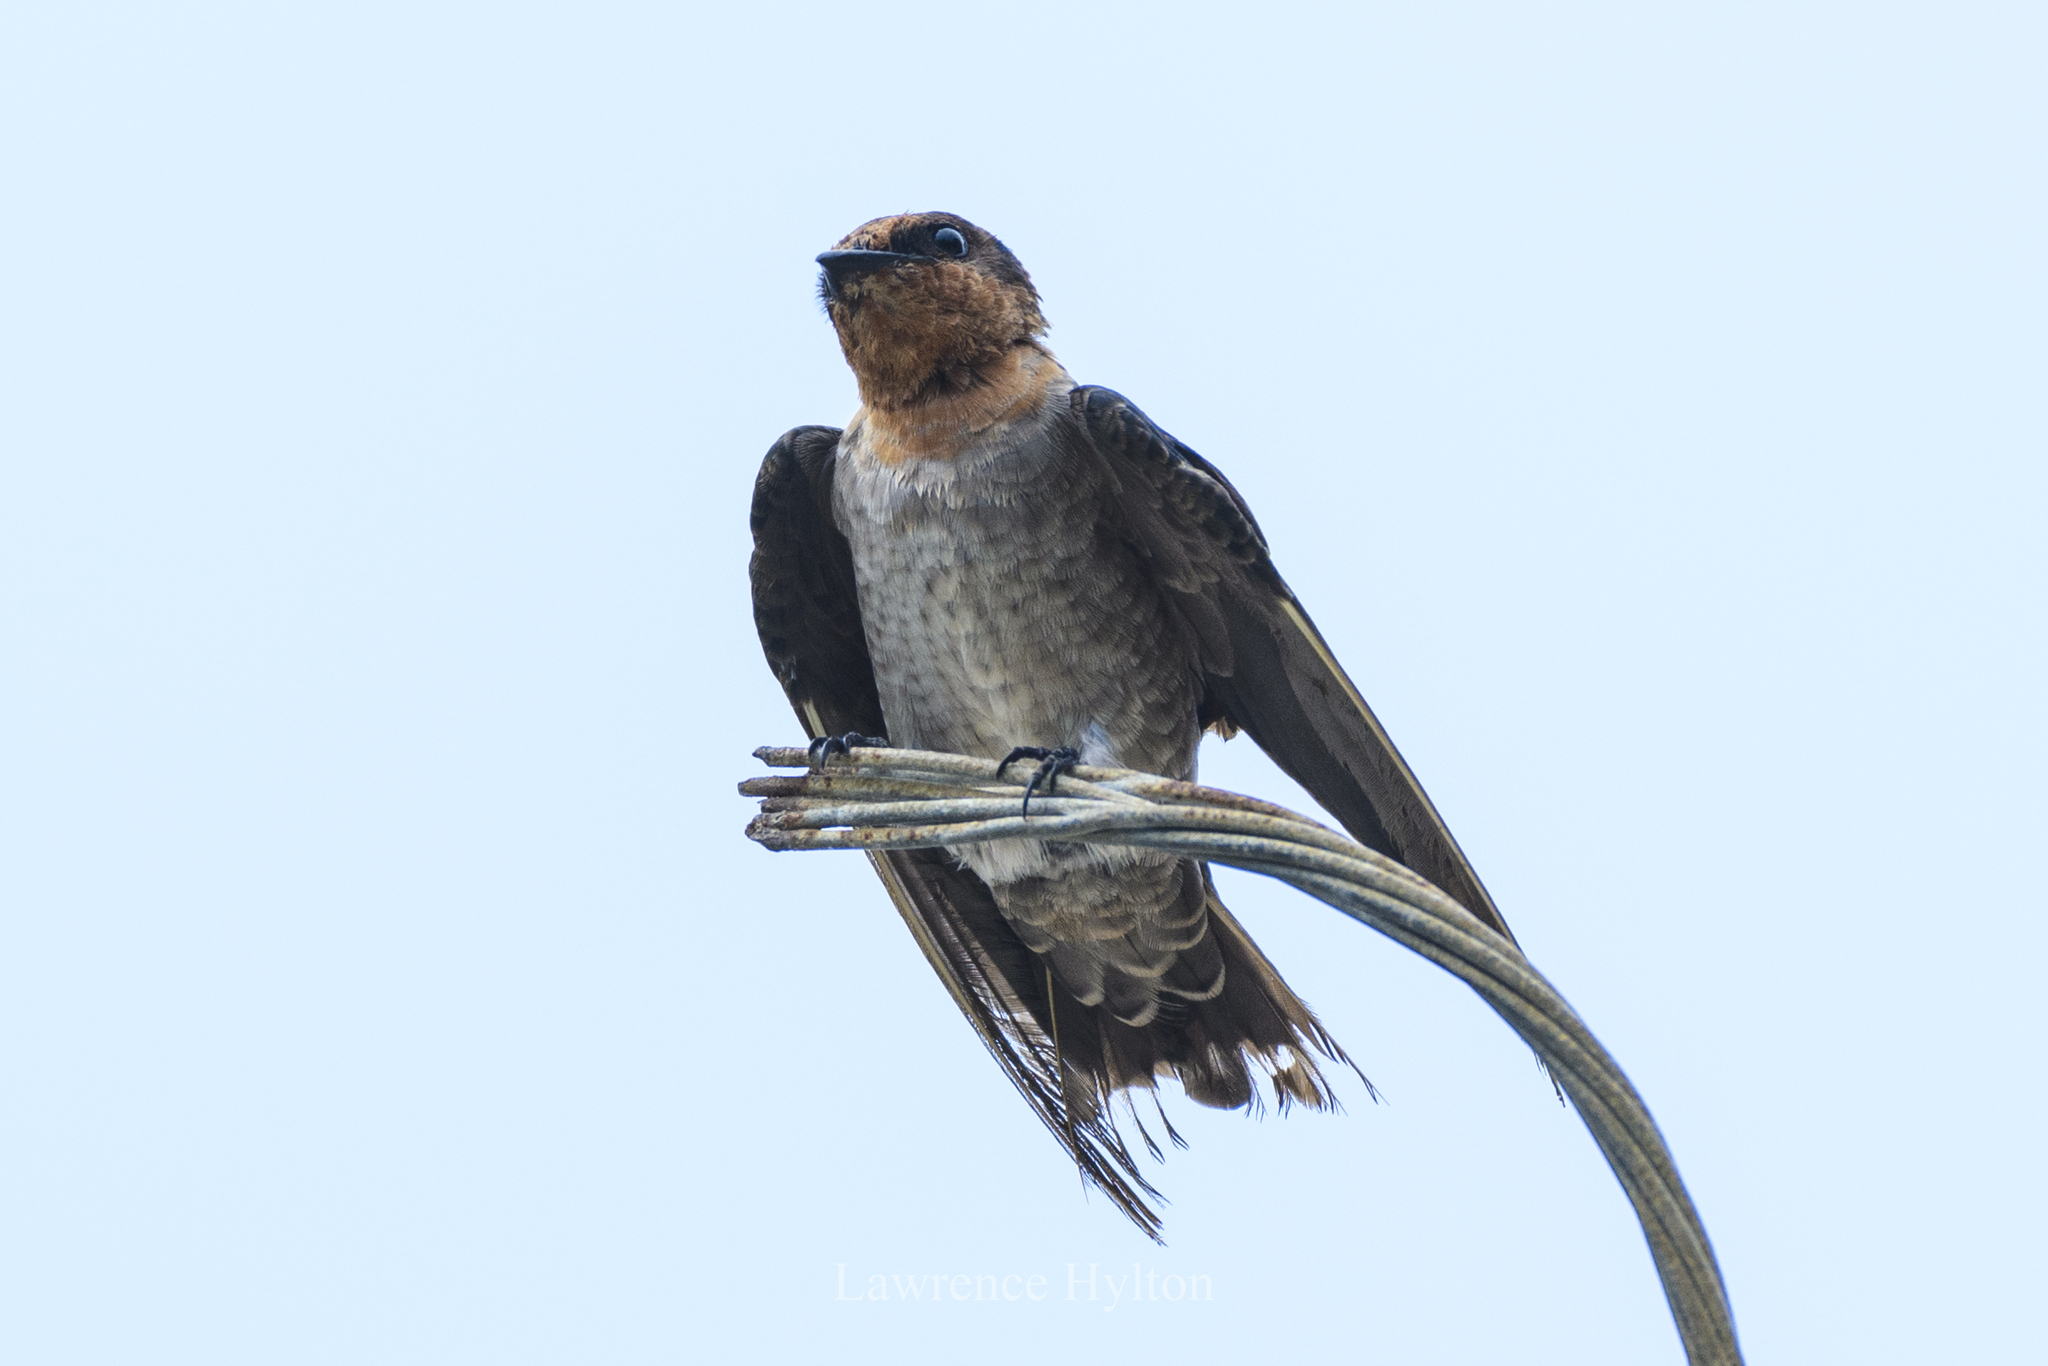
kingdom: Animalia
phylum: Chordata
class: Aves
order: Passeriformes
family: Hirundinidae
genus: Hirundo
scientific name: Hirundo tahitica
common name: Pacific swallow
